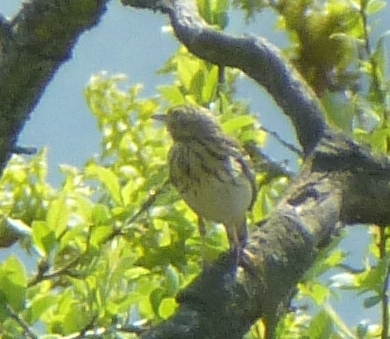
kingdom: Animalia
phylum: Chordata
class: Aves
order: Passeriformes
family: Motacillidae
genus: Anthus
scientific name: Anthus trivialis
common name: Tree pipit
